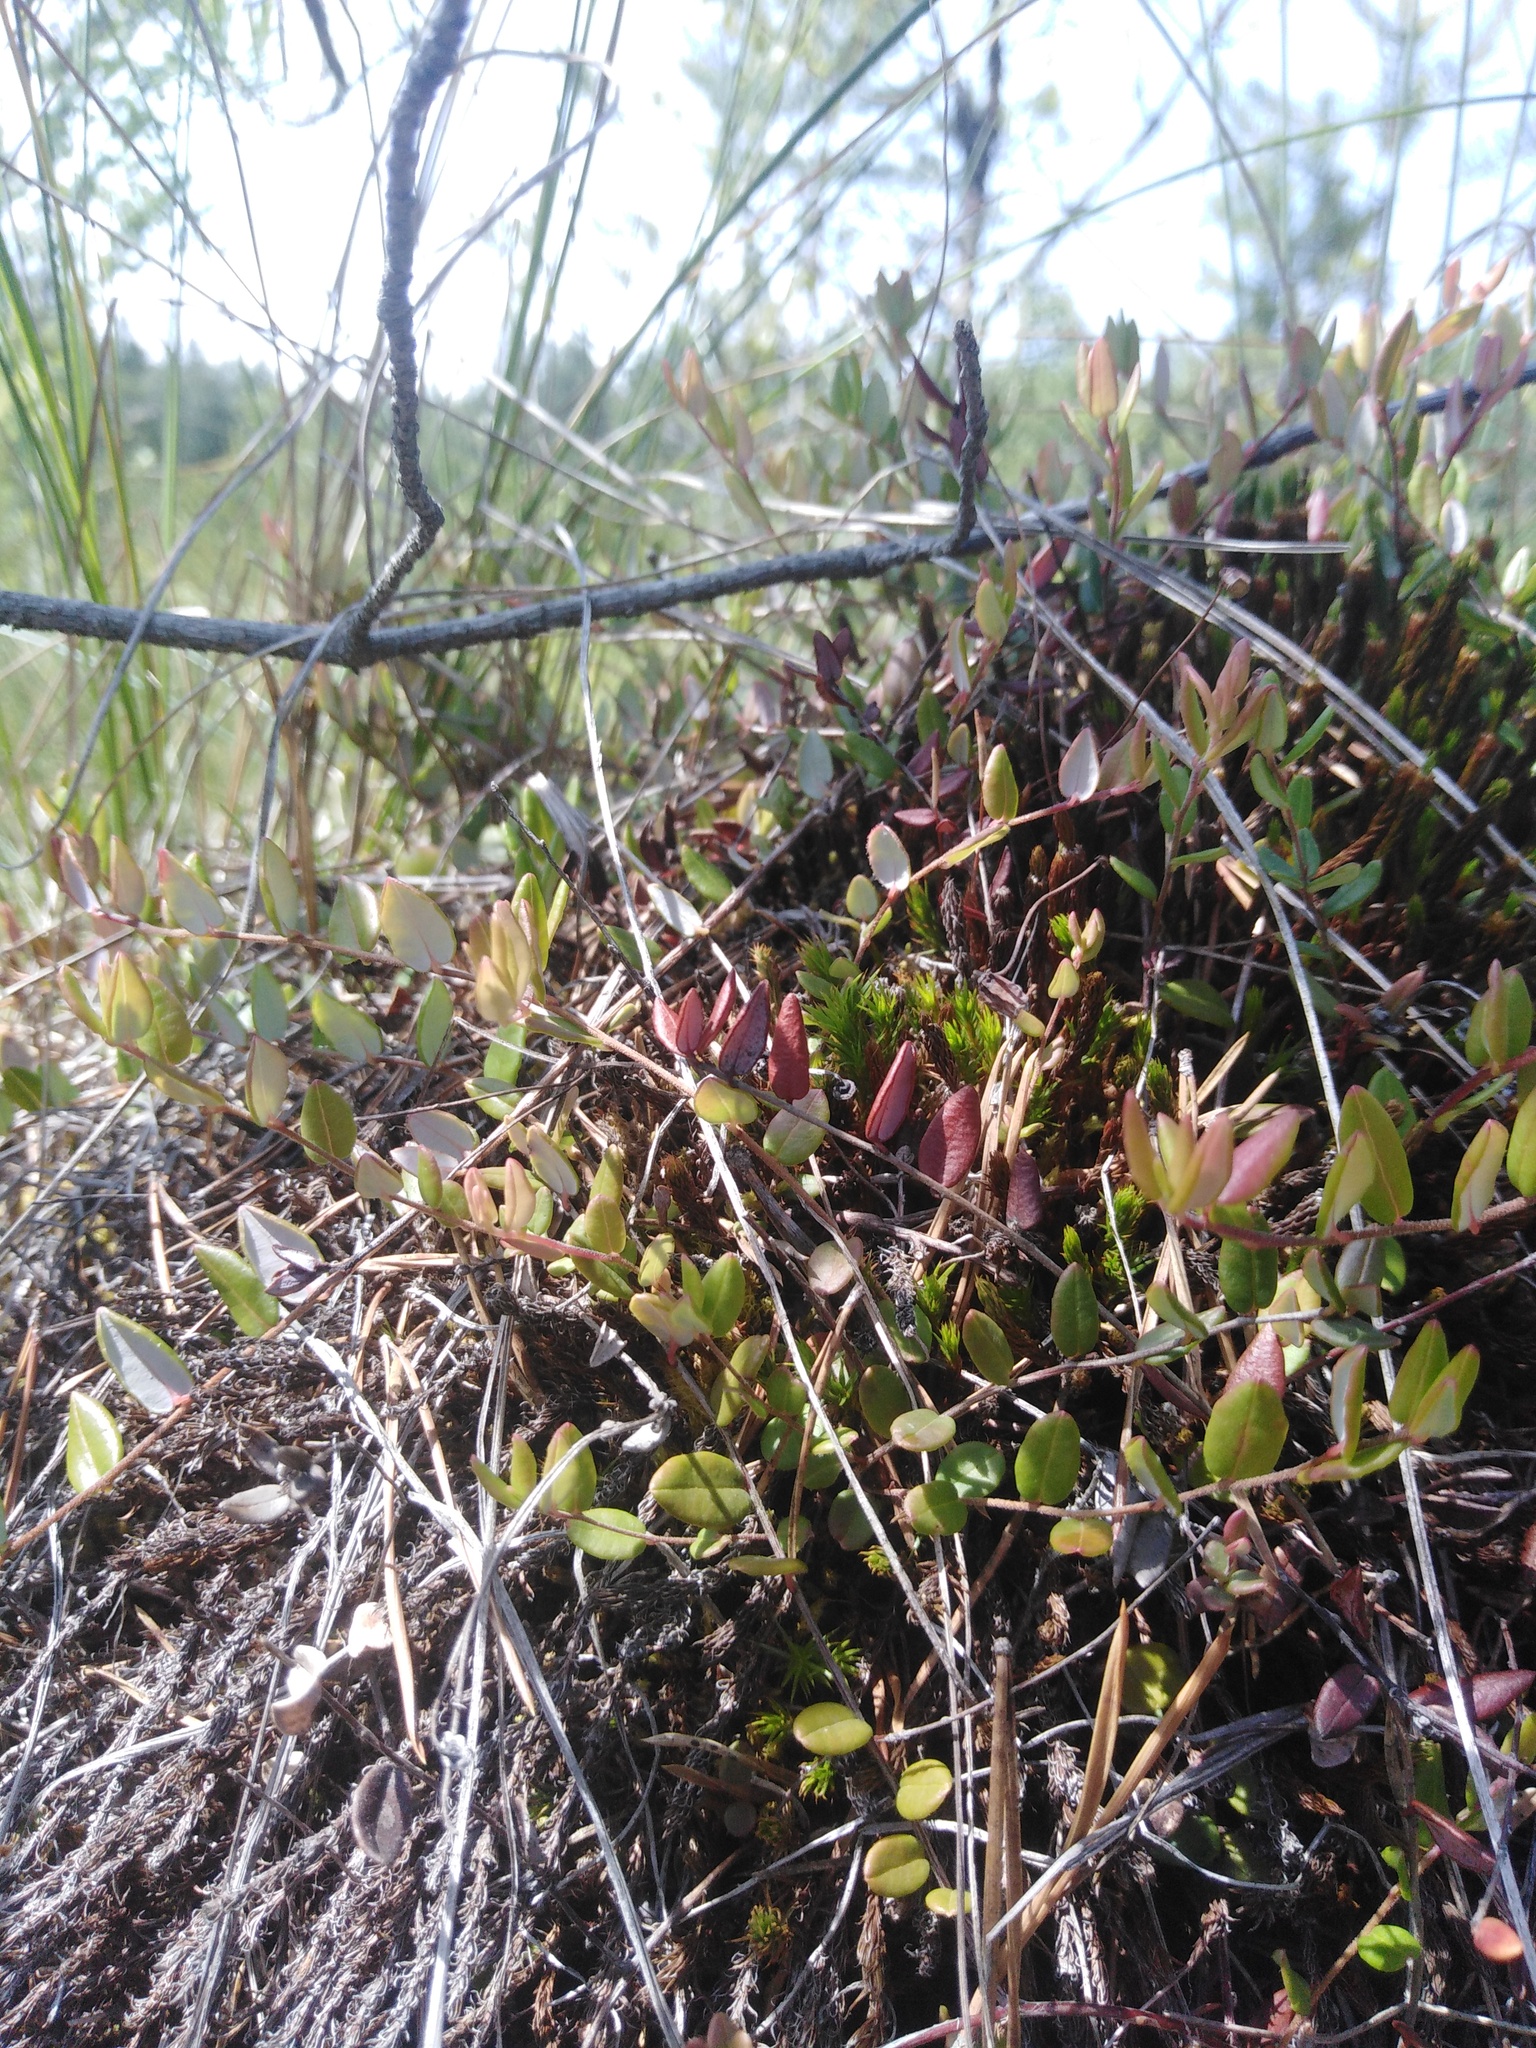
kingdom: Plantae
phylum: Tracheophyta
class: Magnoliopsida
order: Ericales
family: Ericaceae
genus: Vaccinium
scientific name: Vaccinium oxycoccos
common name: Cranberry
